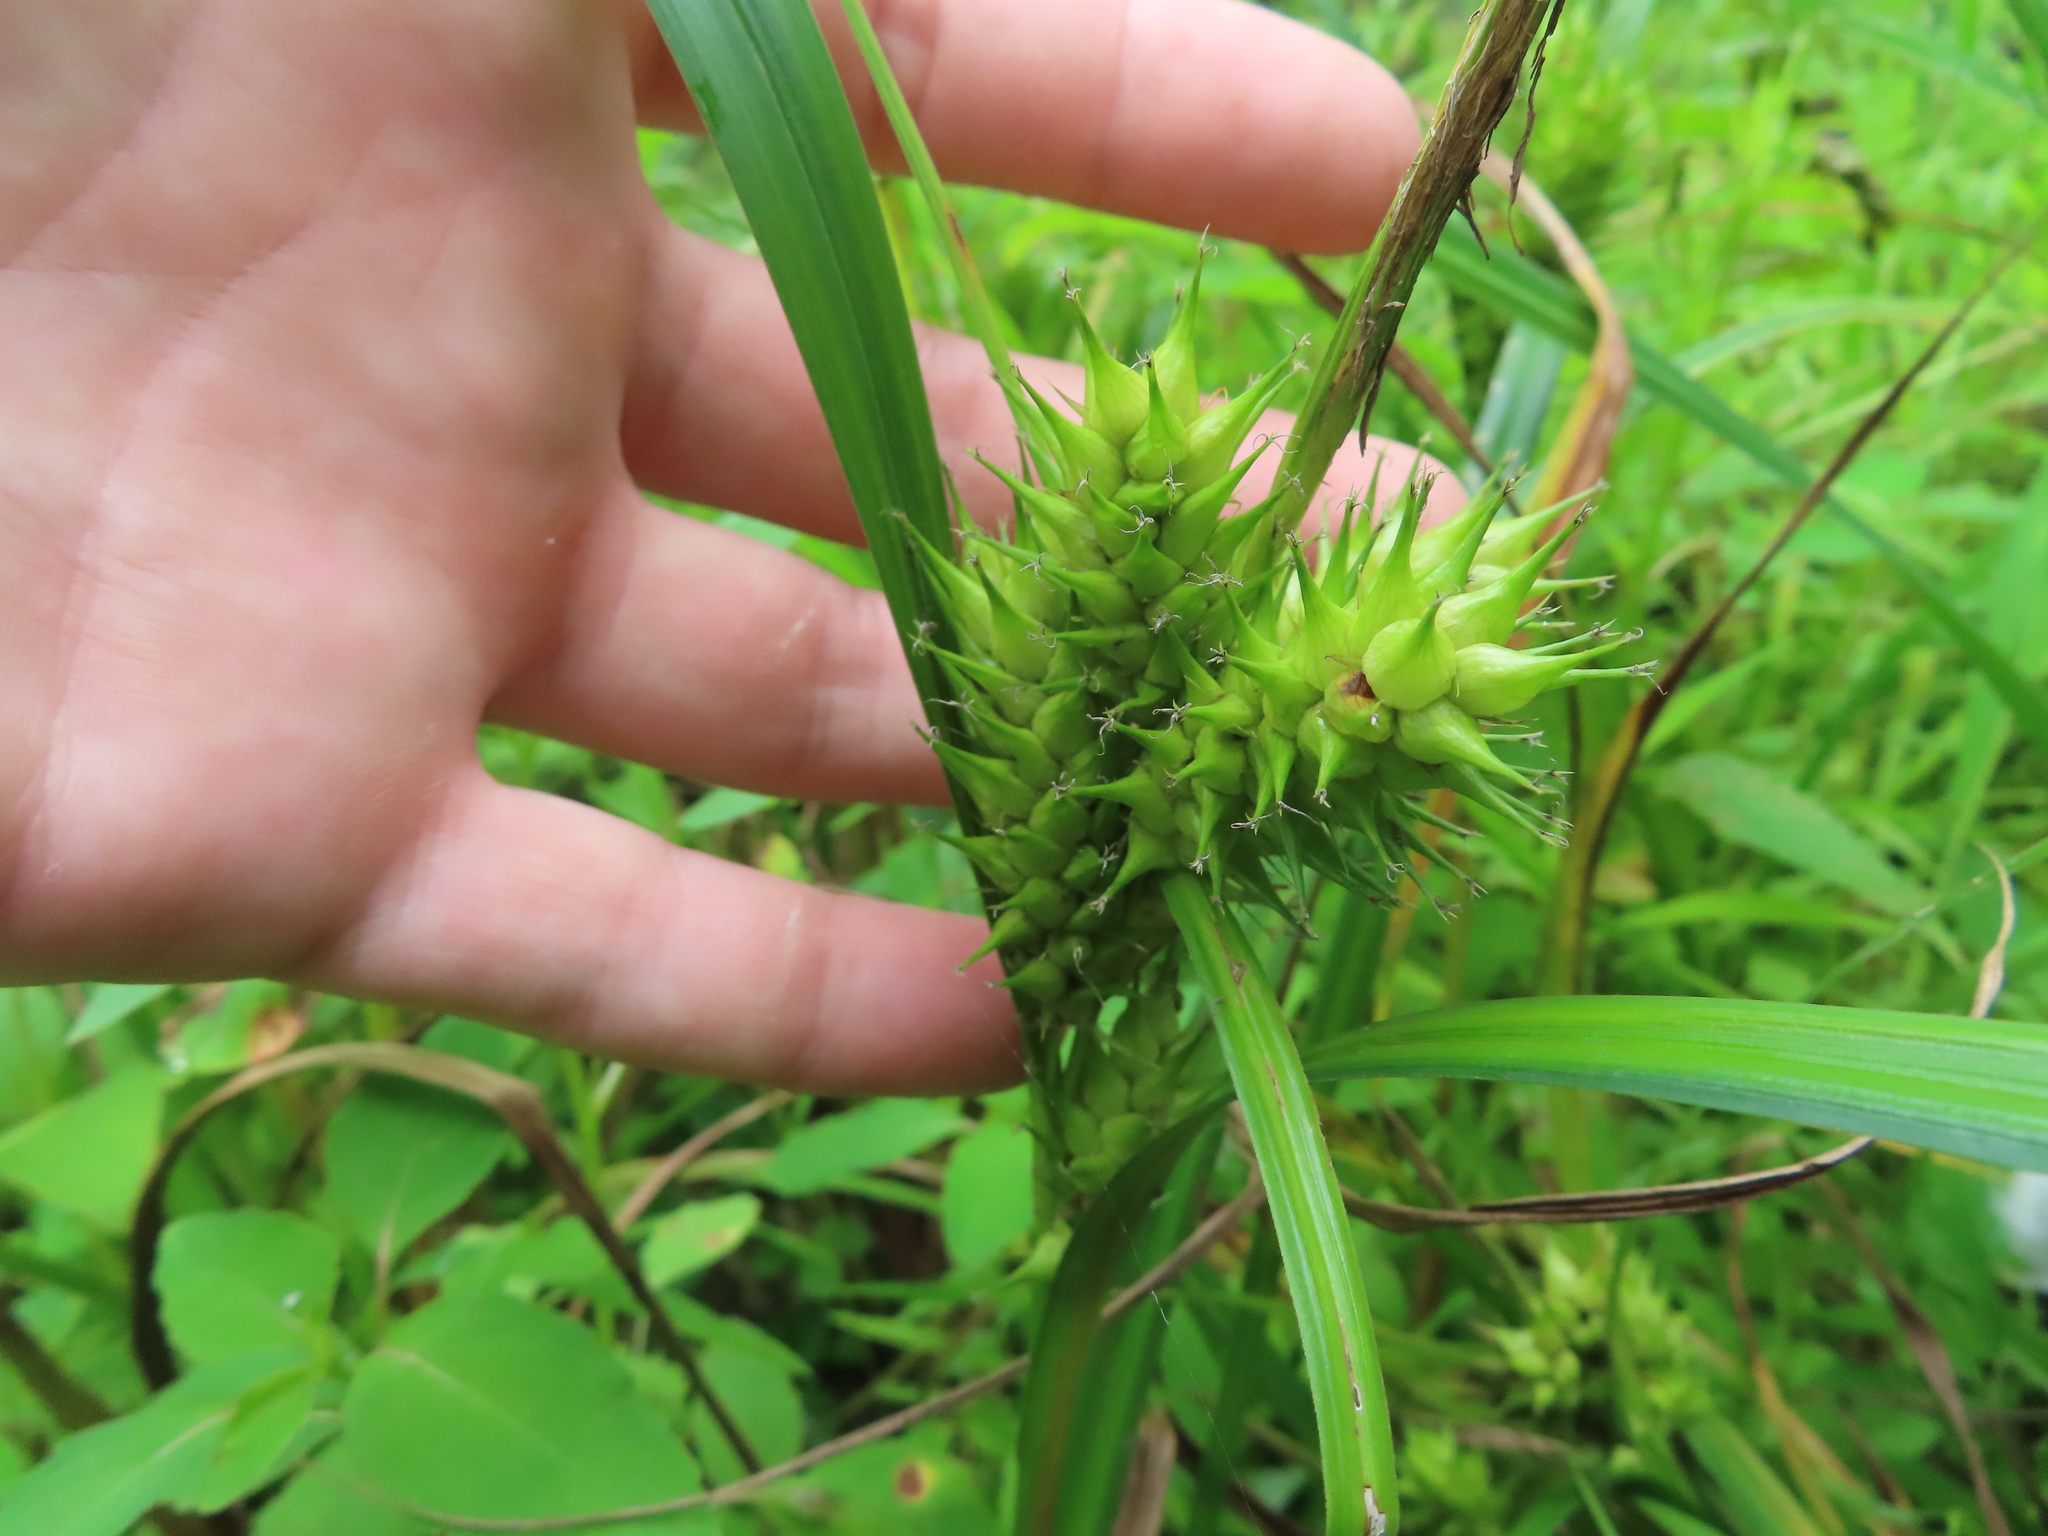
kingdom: Plantae
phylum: Tracheophyta
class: Liliopsida
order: Poales
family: Cyperaceae
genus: Carex
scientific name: Carex lupulina
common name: Hop sedge
